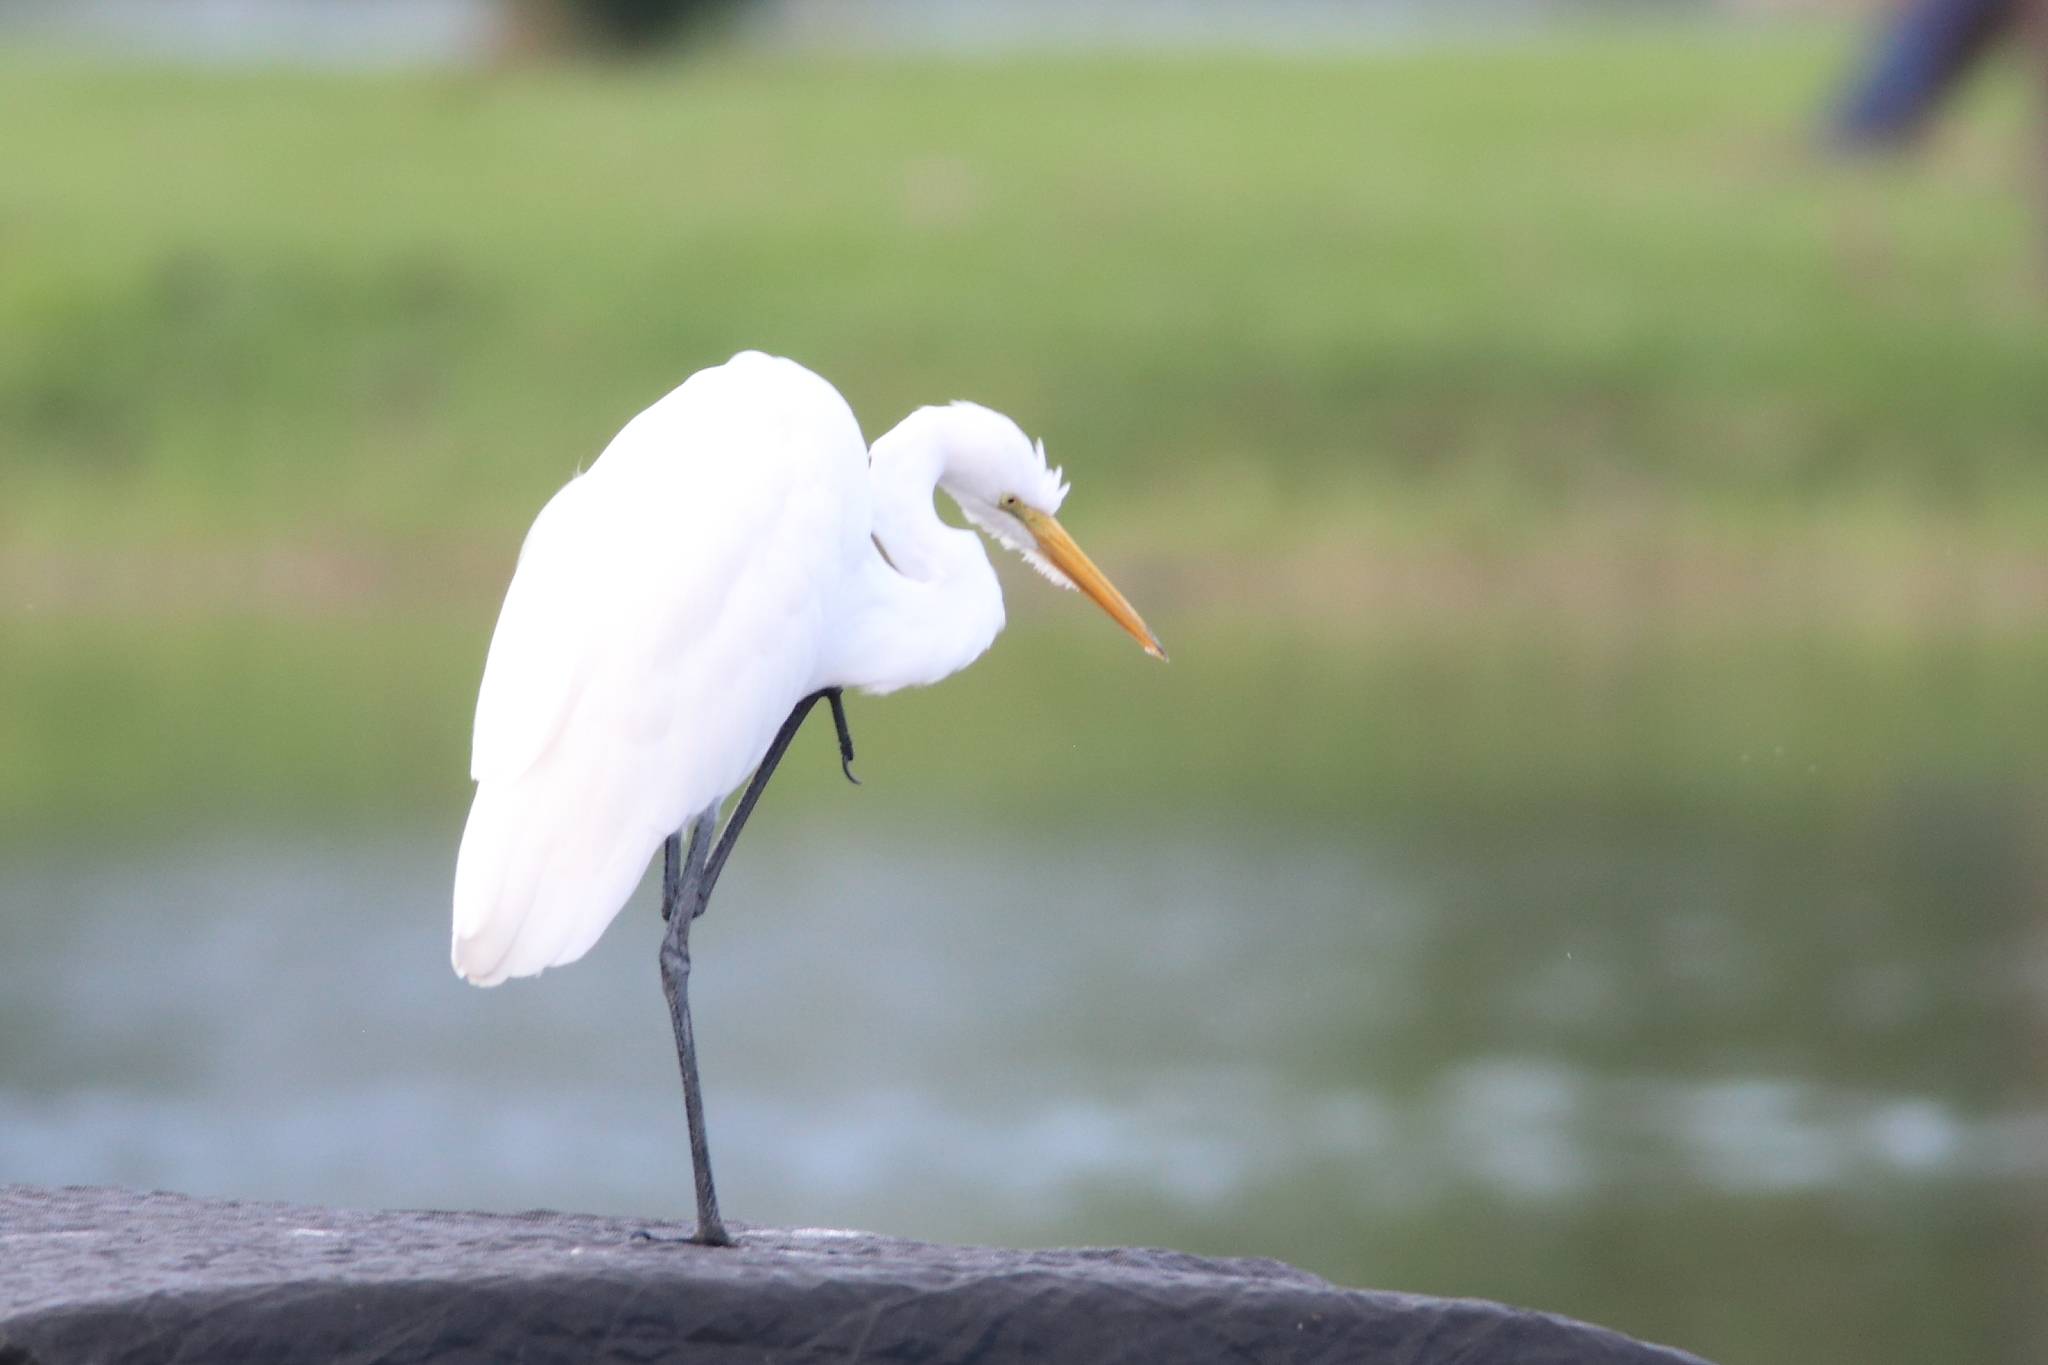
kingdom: Animalia
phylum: Chordata
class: Aves
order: Pelecaniformes
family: Ardeidae
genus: Ardea
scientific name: Ardea alba
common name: Great egret
